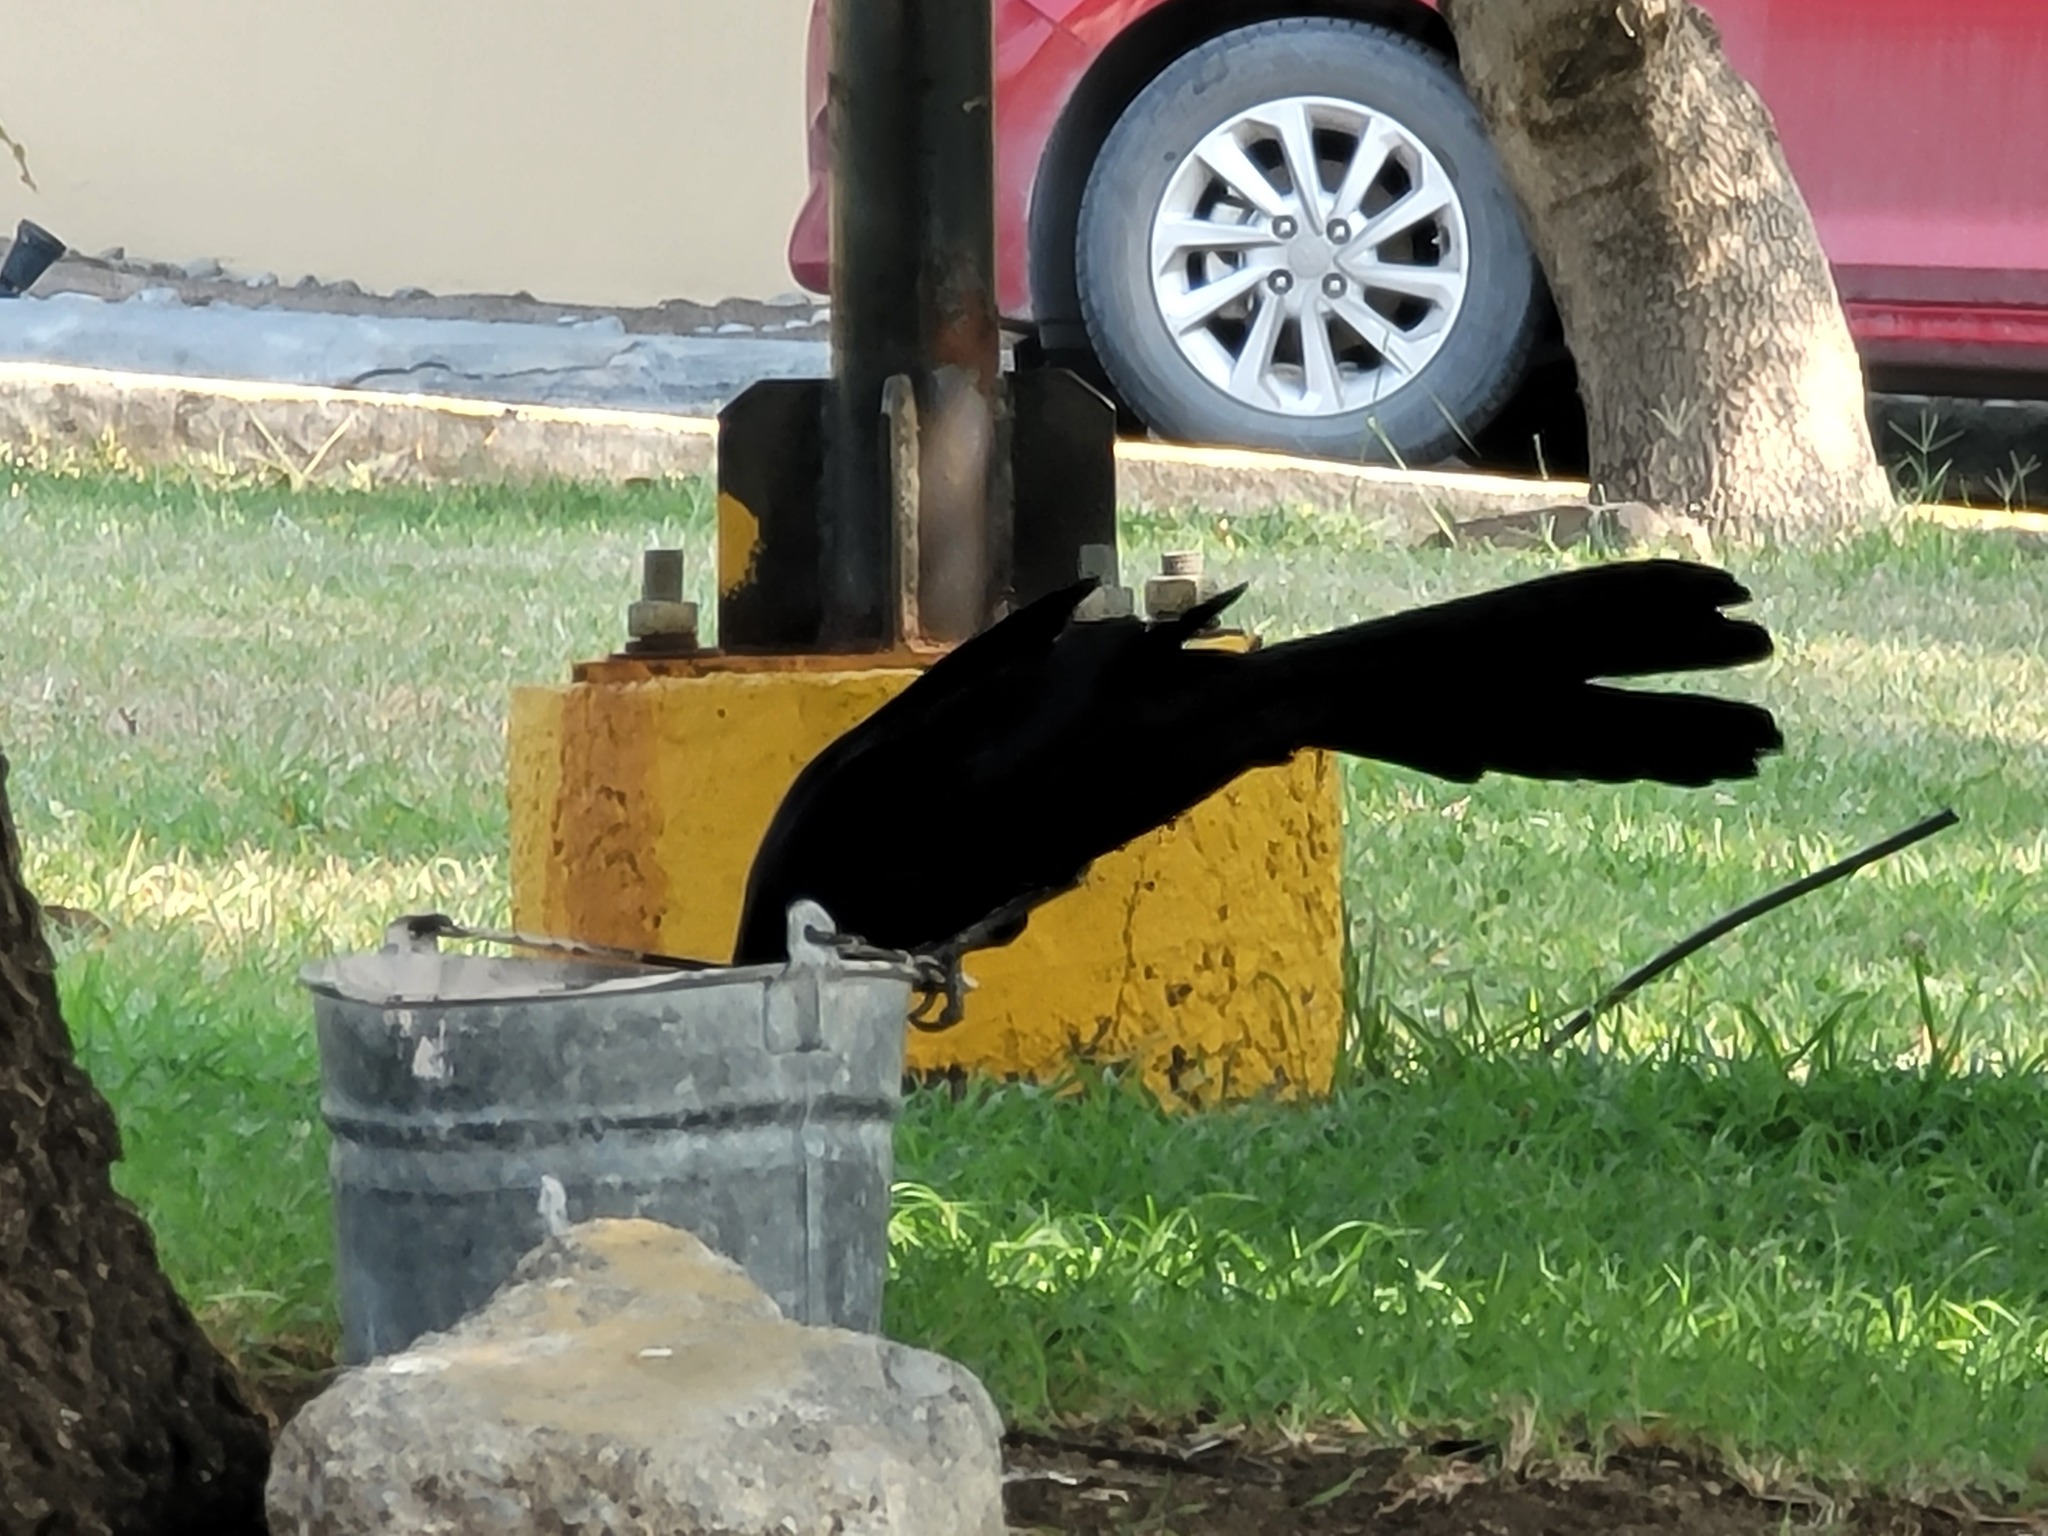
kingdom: Animalia
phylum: Chordata
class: Aves
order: Passeriformes
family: Icteridae
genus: Quiscalus
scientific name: Quiscalus mexicanus
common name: Great-tailed grackle
